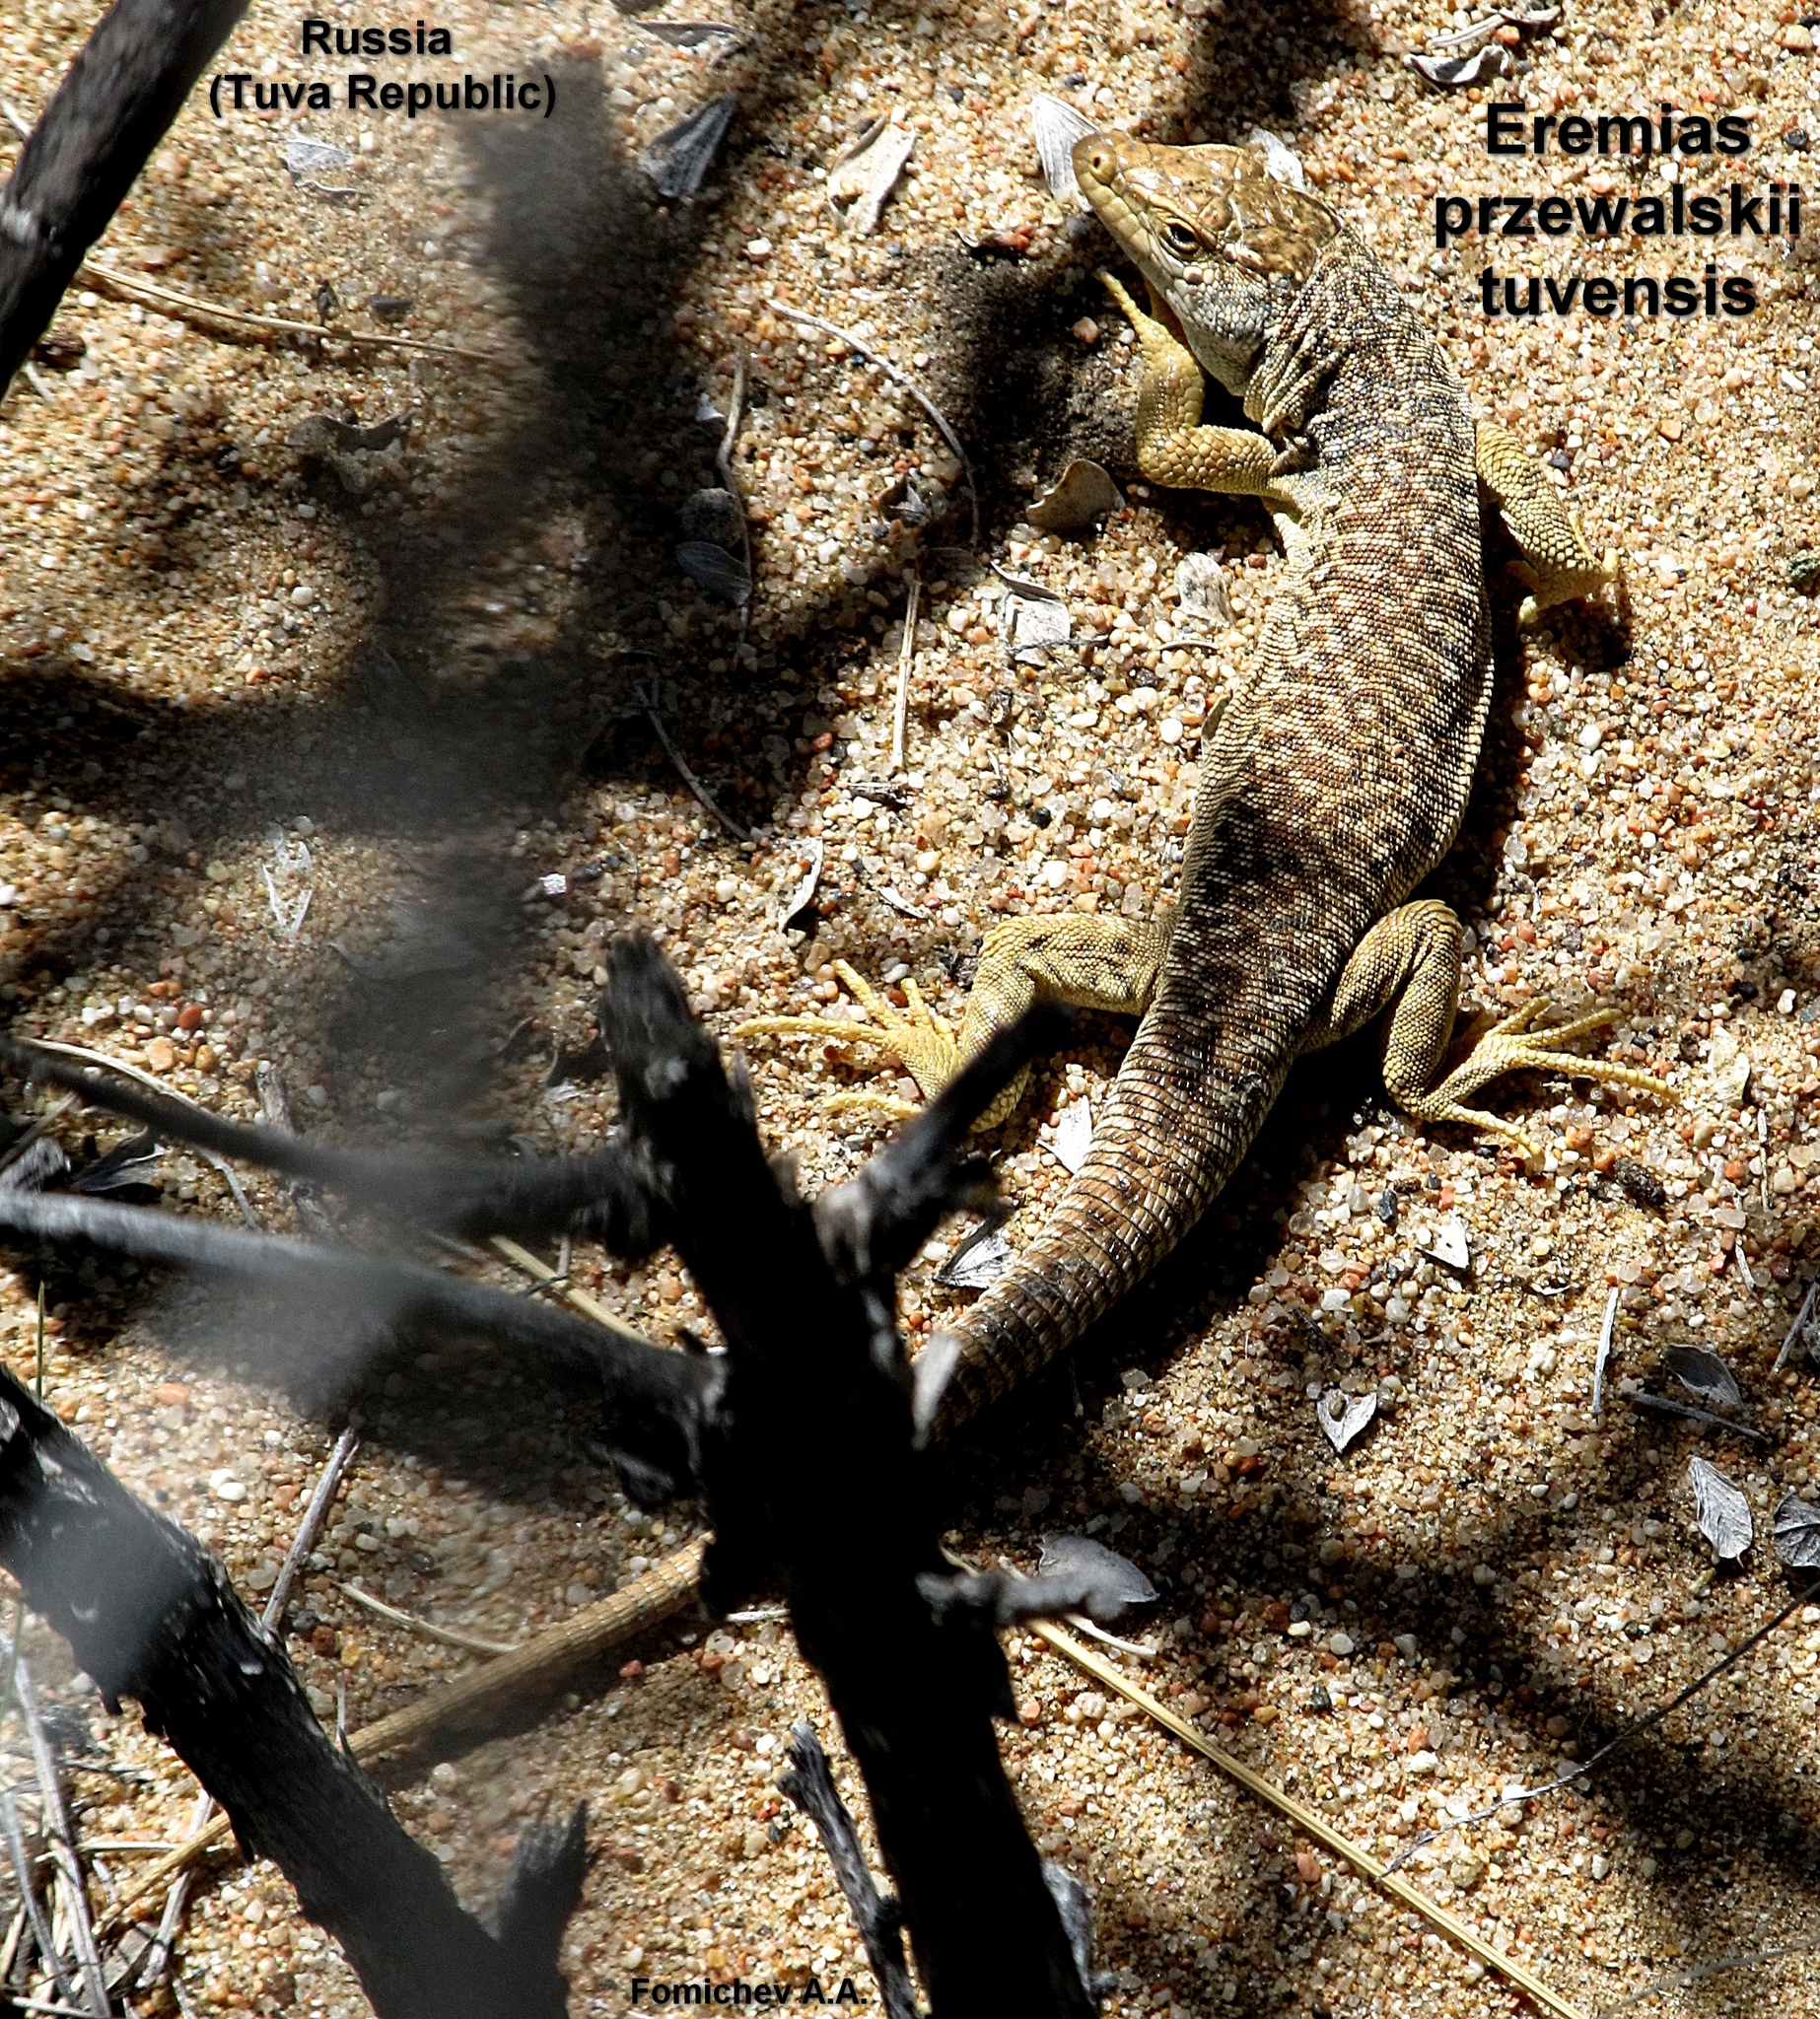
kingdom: Animalia
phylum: Chordata
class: Squamata
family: Lacertidae
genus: Eremias
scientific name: Eremias przewalskii
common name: Gobi racerunner
